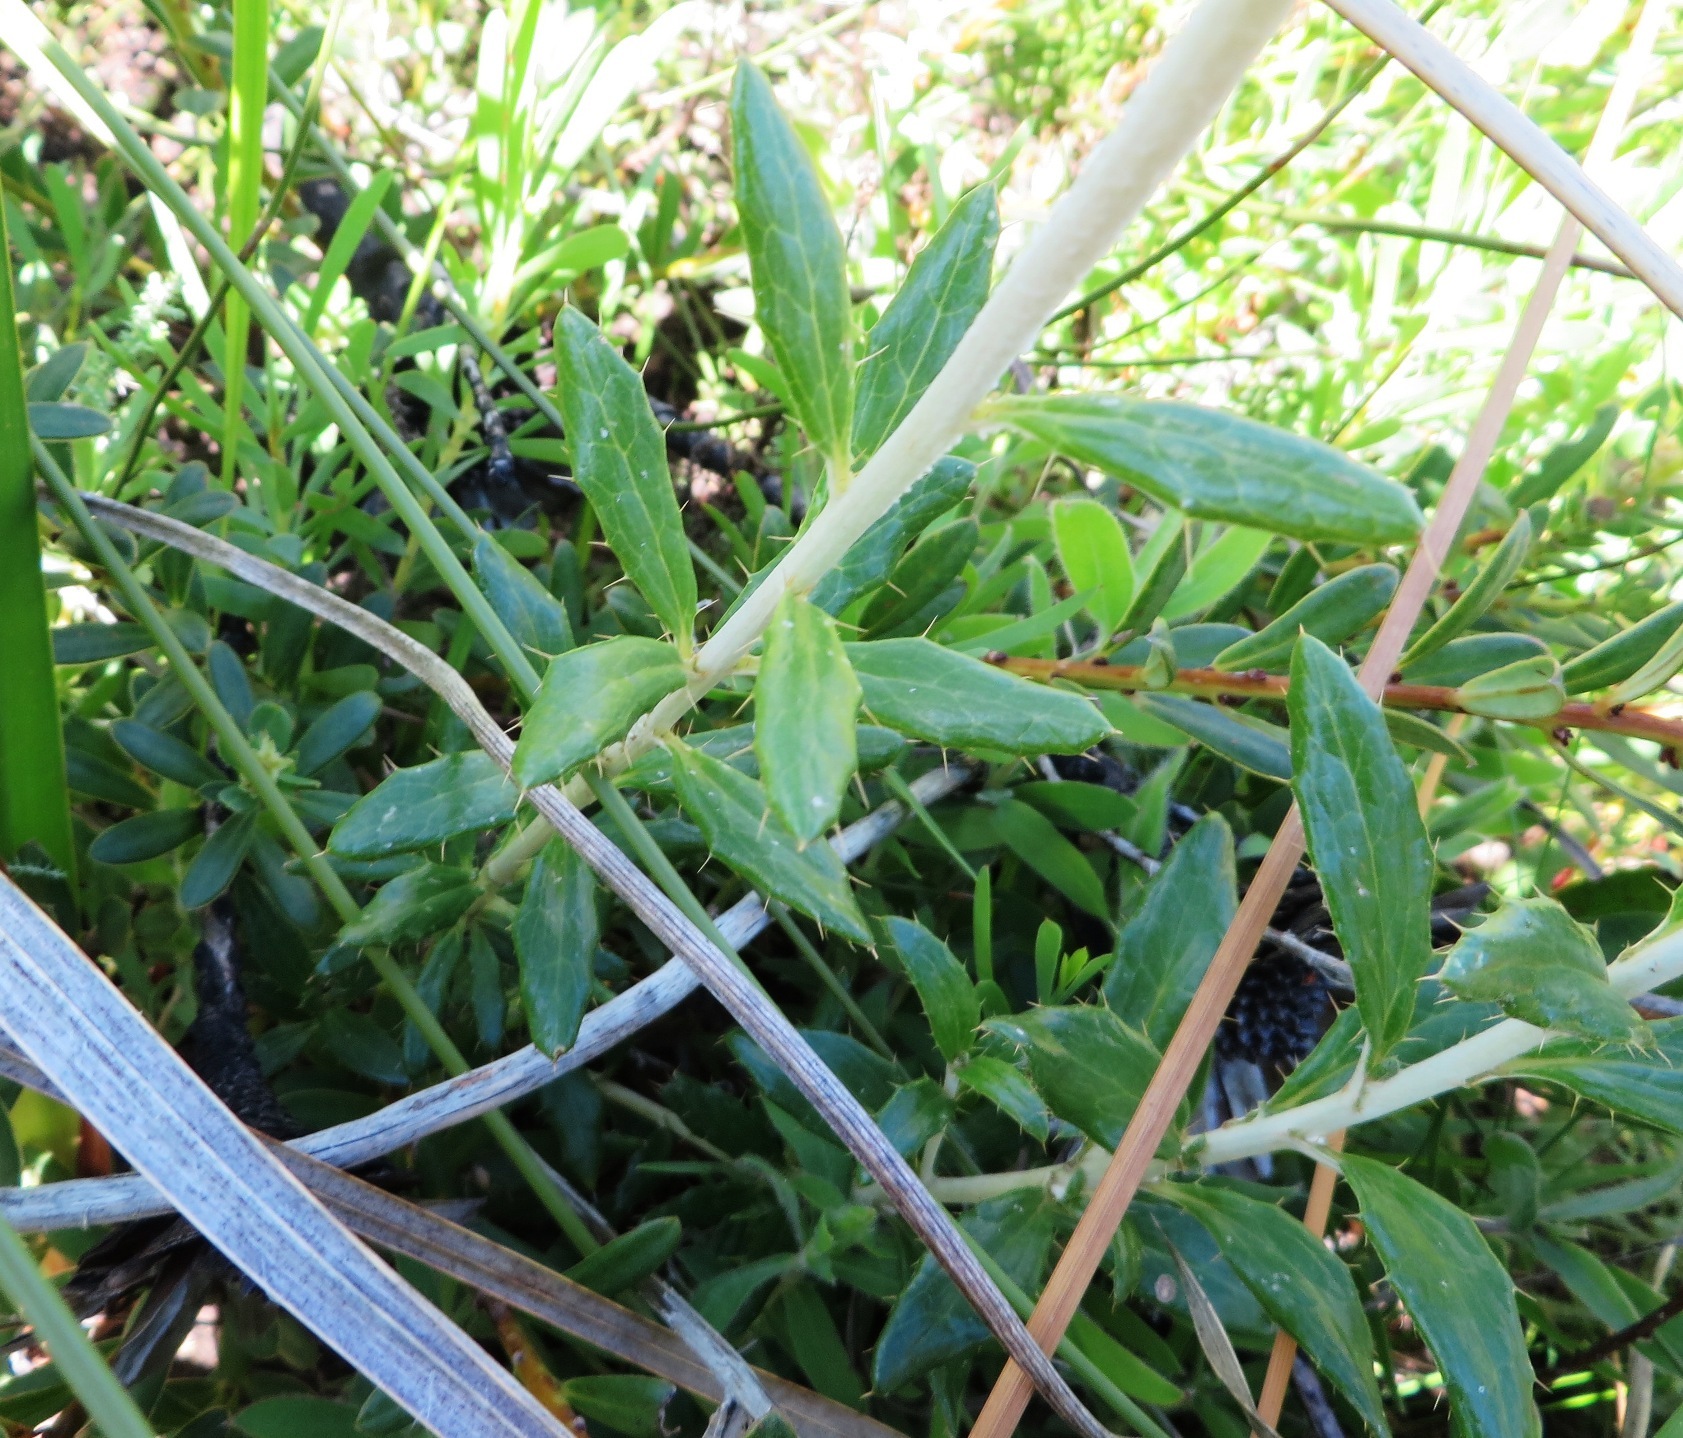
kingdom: Plantae
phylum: Tracheophyta
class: Magnoliopsida
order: Asterales
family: Asteraceae
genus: Berkheya
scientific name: Berkheya barbata
